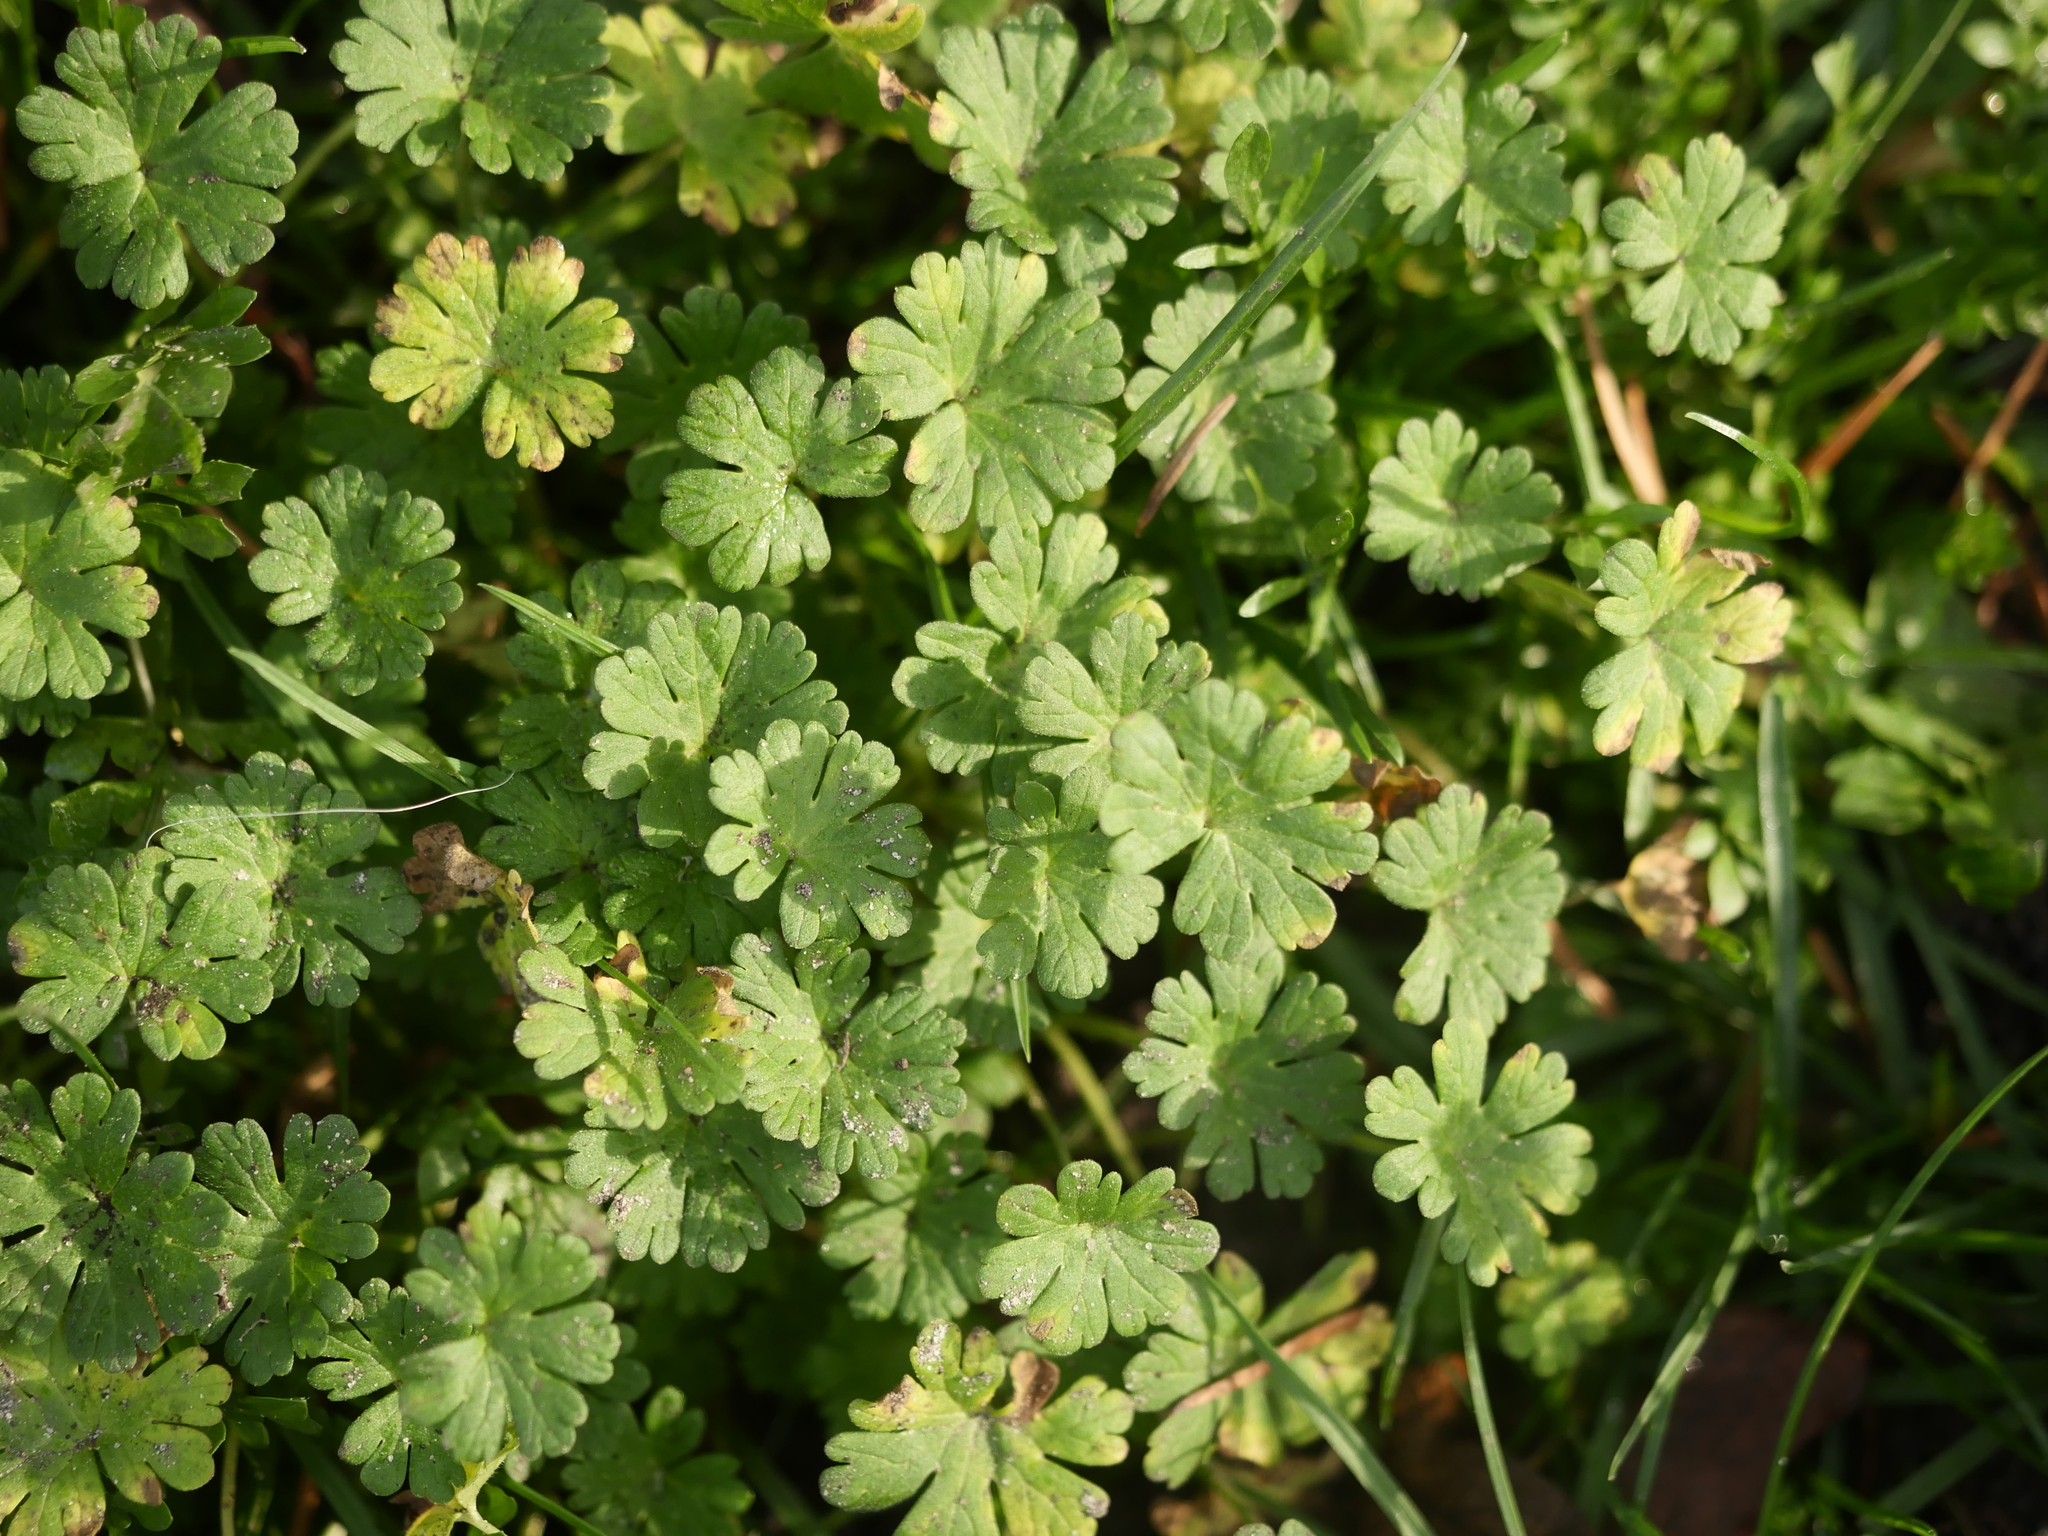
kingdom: Plantae
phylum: Tracheophyta
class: Magnoliopsida
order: Geraniales
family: Geraniaceae
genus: Geranium
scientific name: Geranium pusillum
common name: Small geranium
